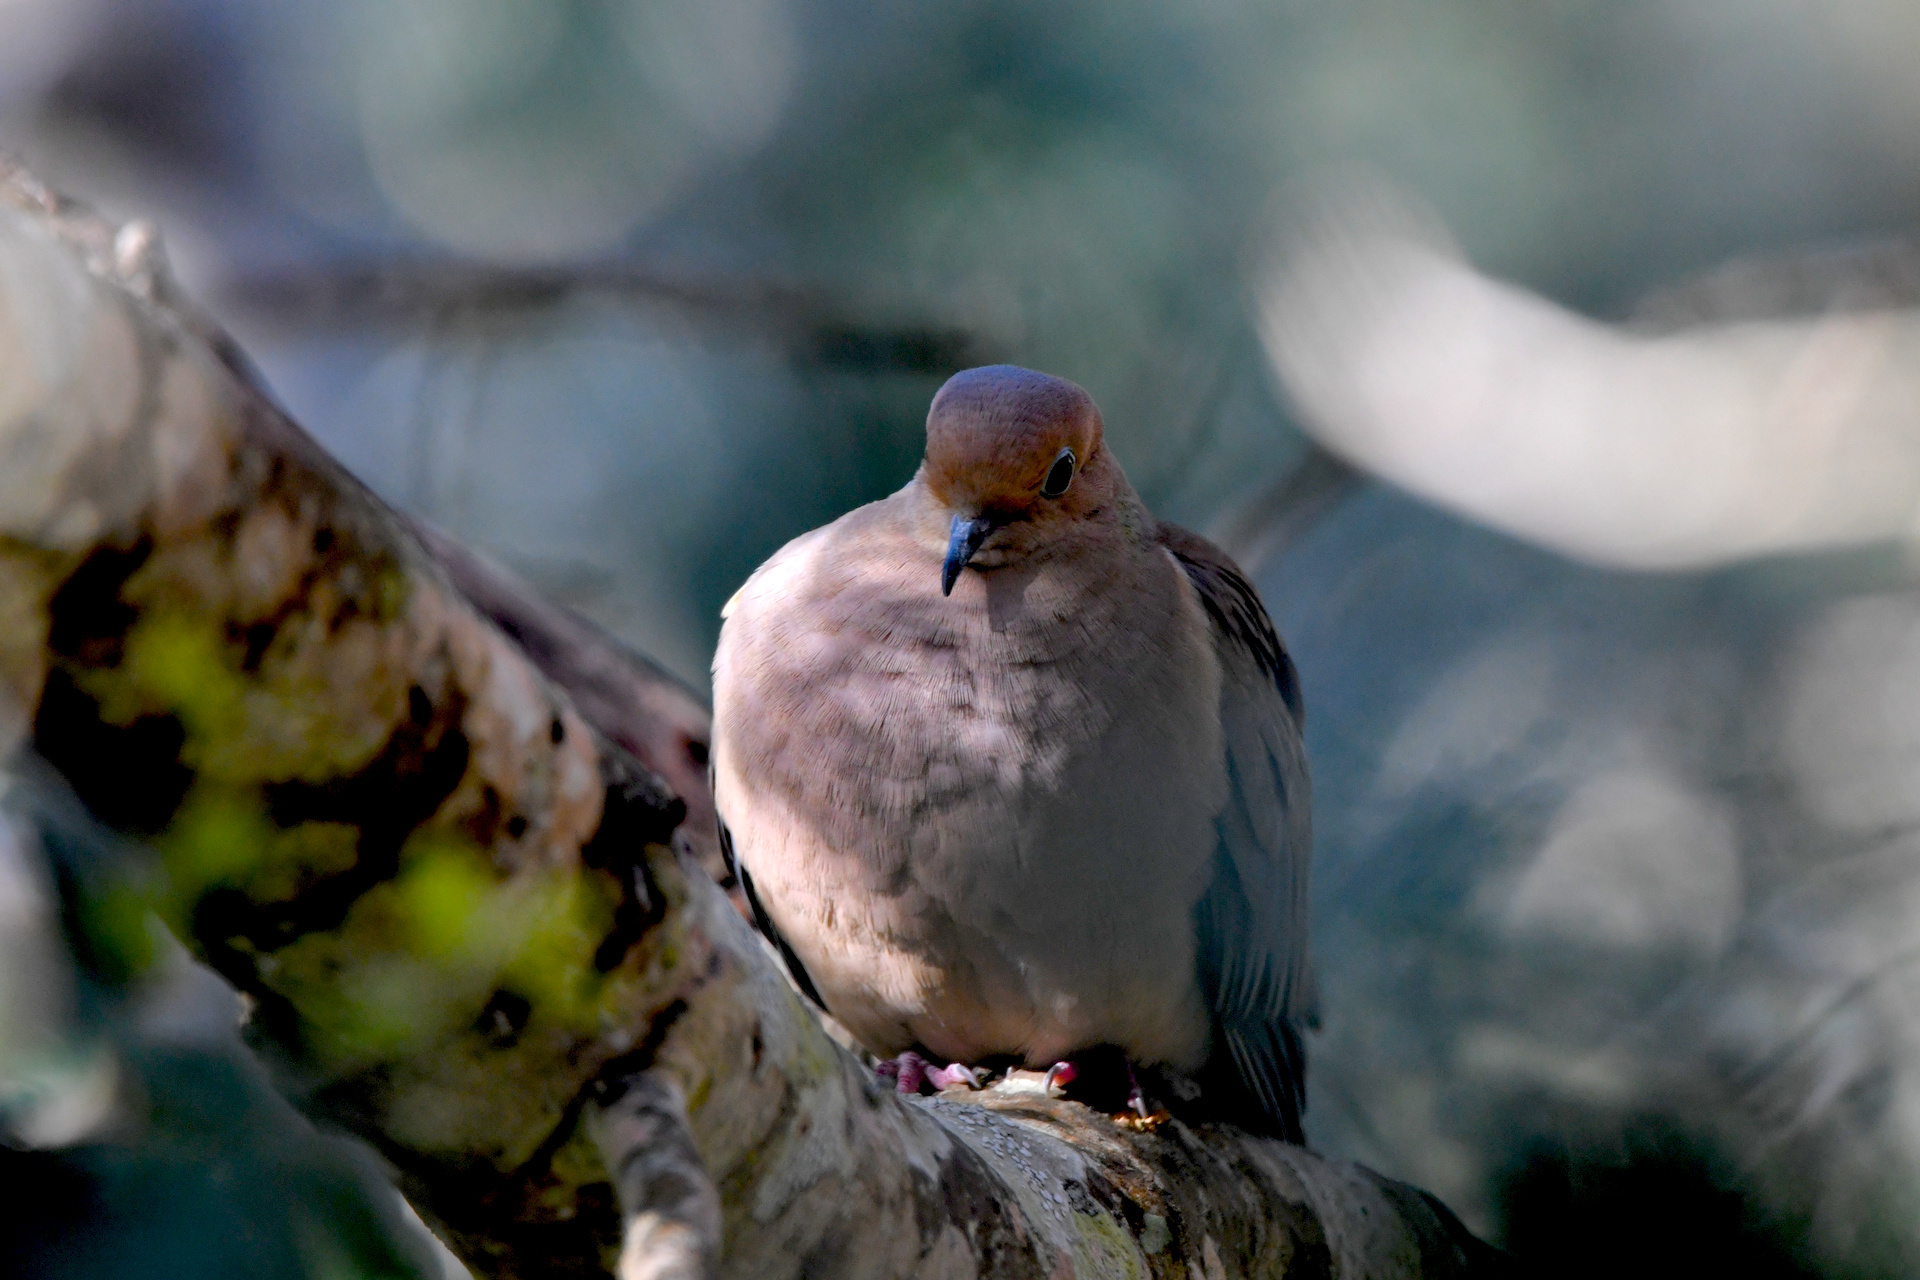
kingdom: Animalia
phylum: Chordata
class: Aves
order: Columbiformes
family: Columbidae
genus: Zenaida
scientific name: Zenaida macroura
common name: Mourning dove
